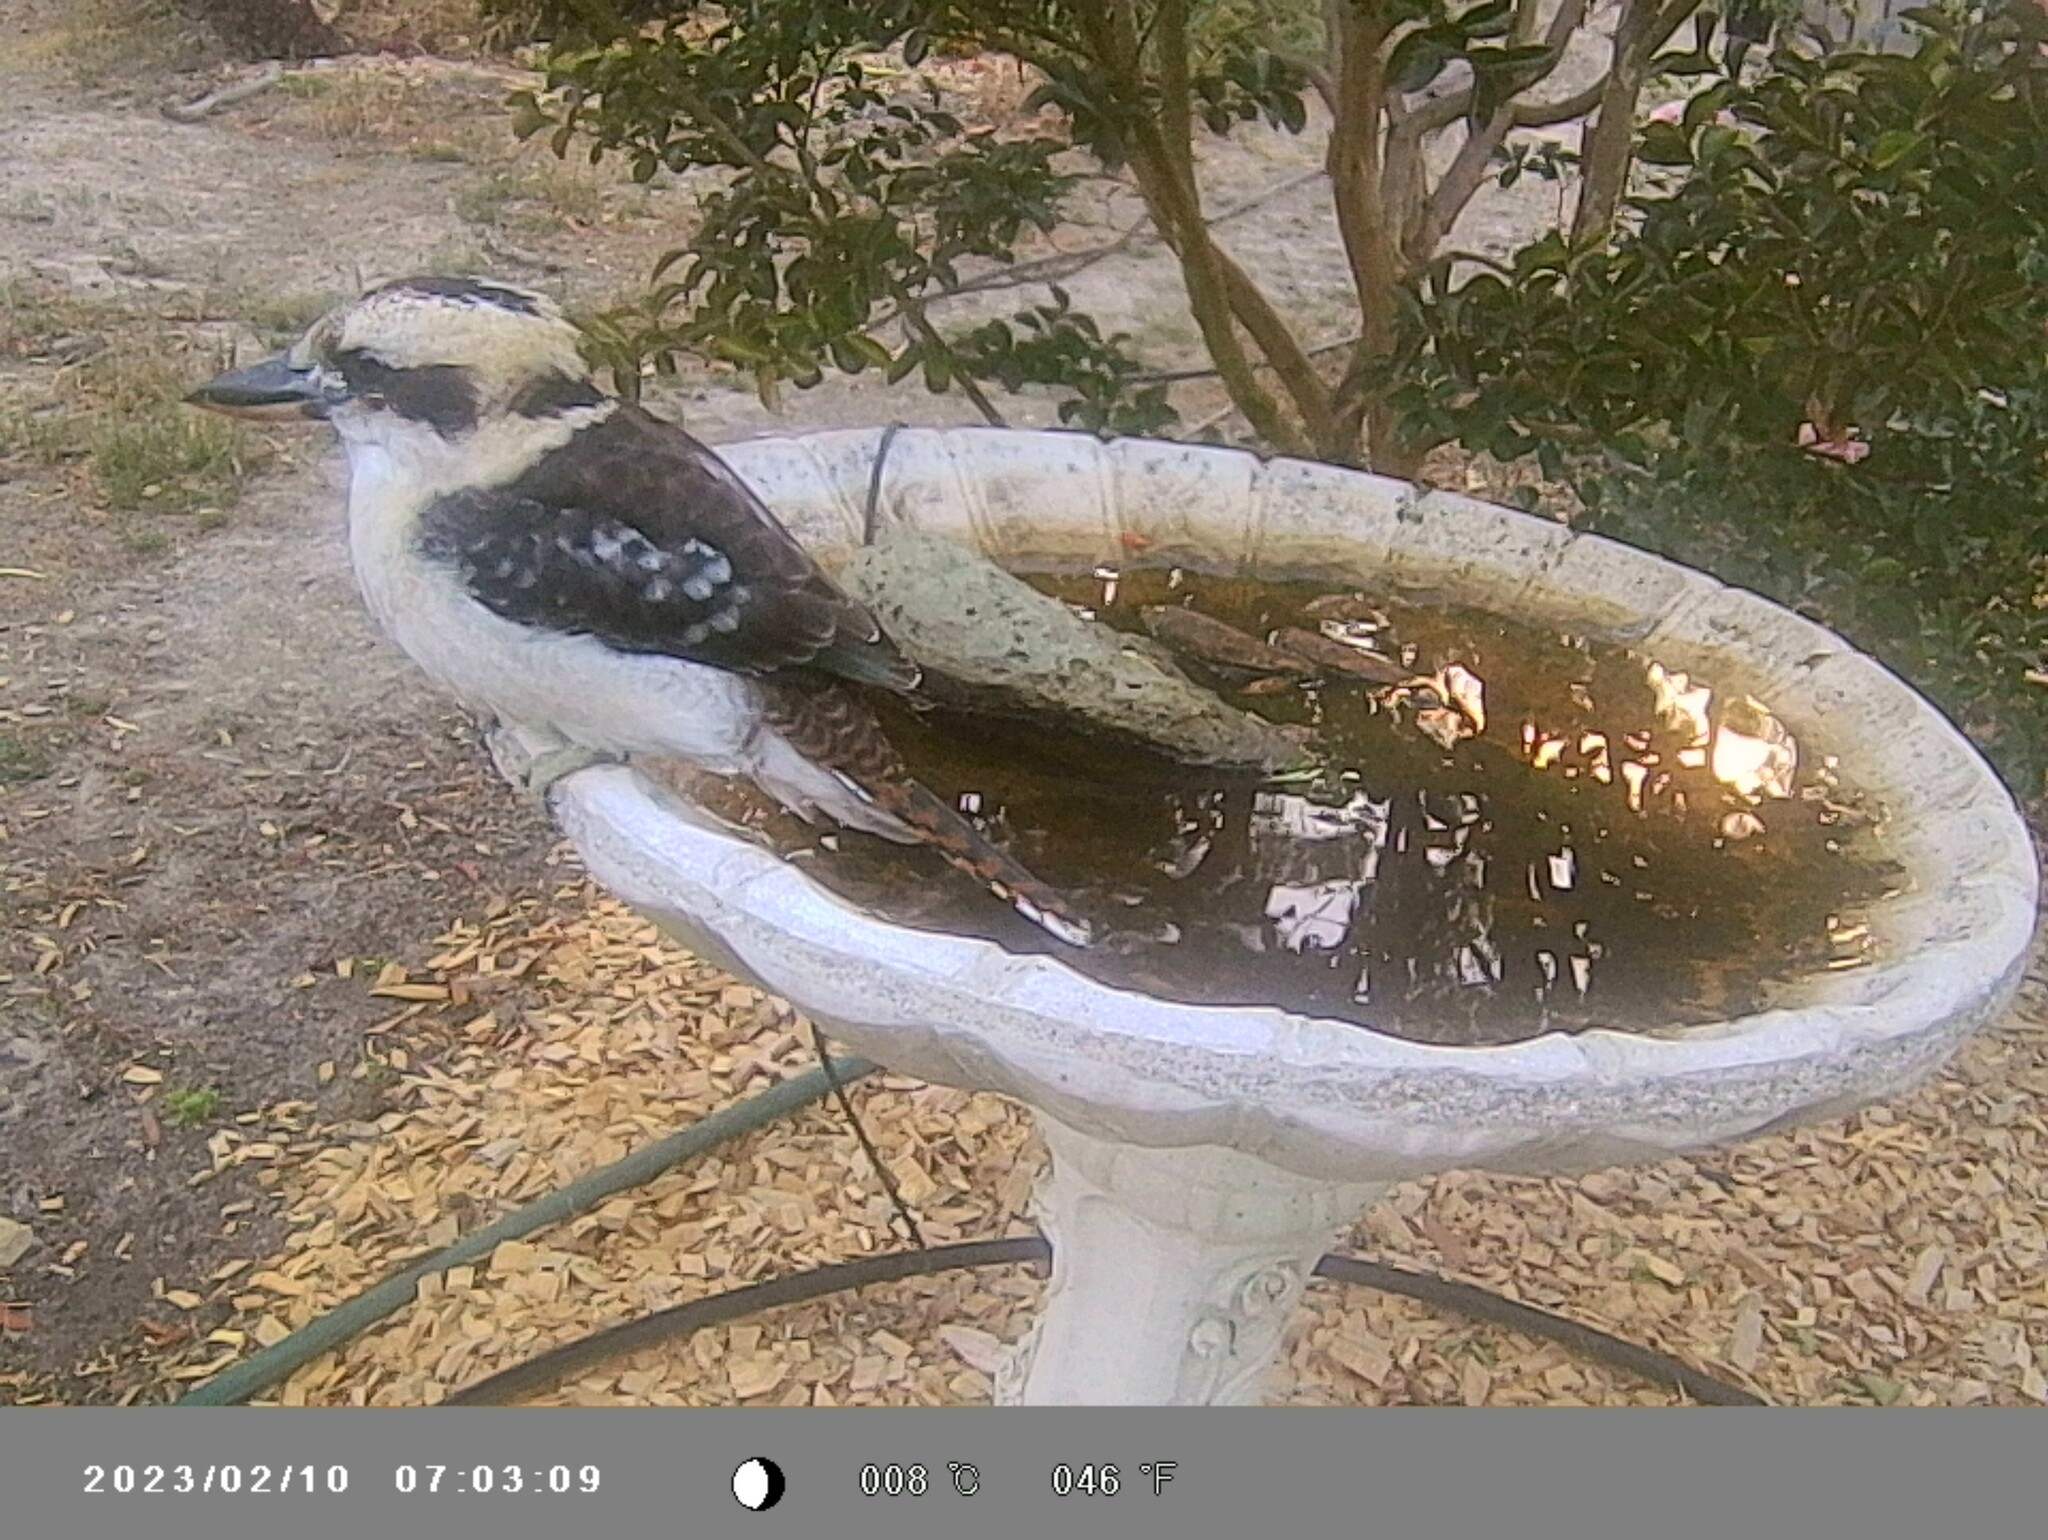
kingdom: Animalia
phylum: Chordata
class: Aves
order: Coraciiformes
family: Alcedinidae
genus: Dacelo
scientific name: Dacelo novaeguineae
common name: Laughing kookaburra
